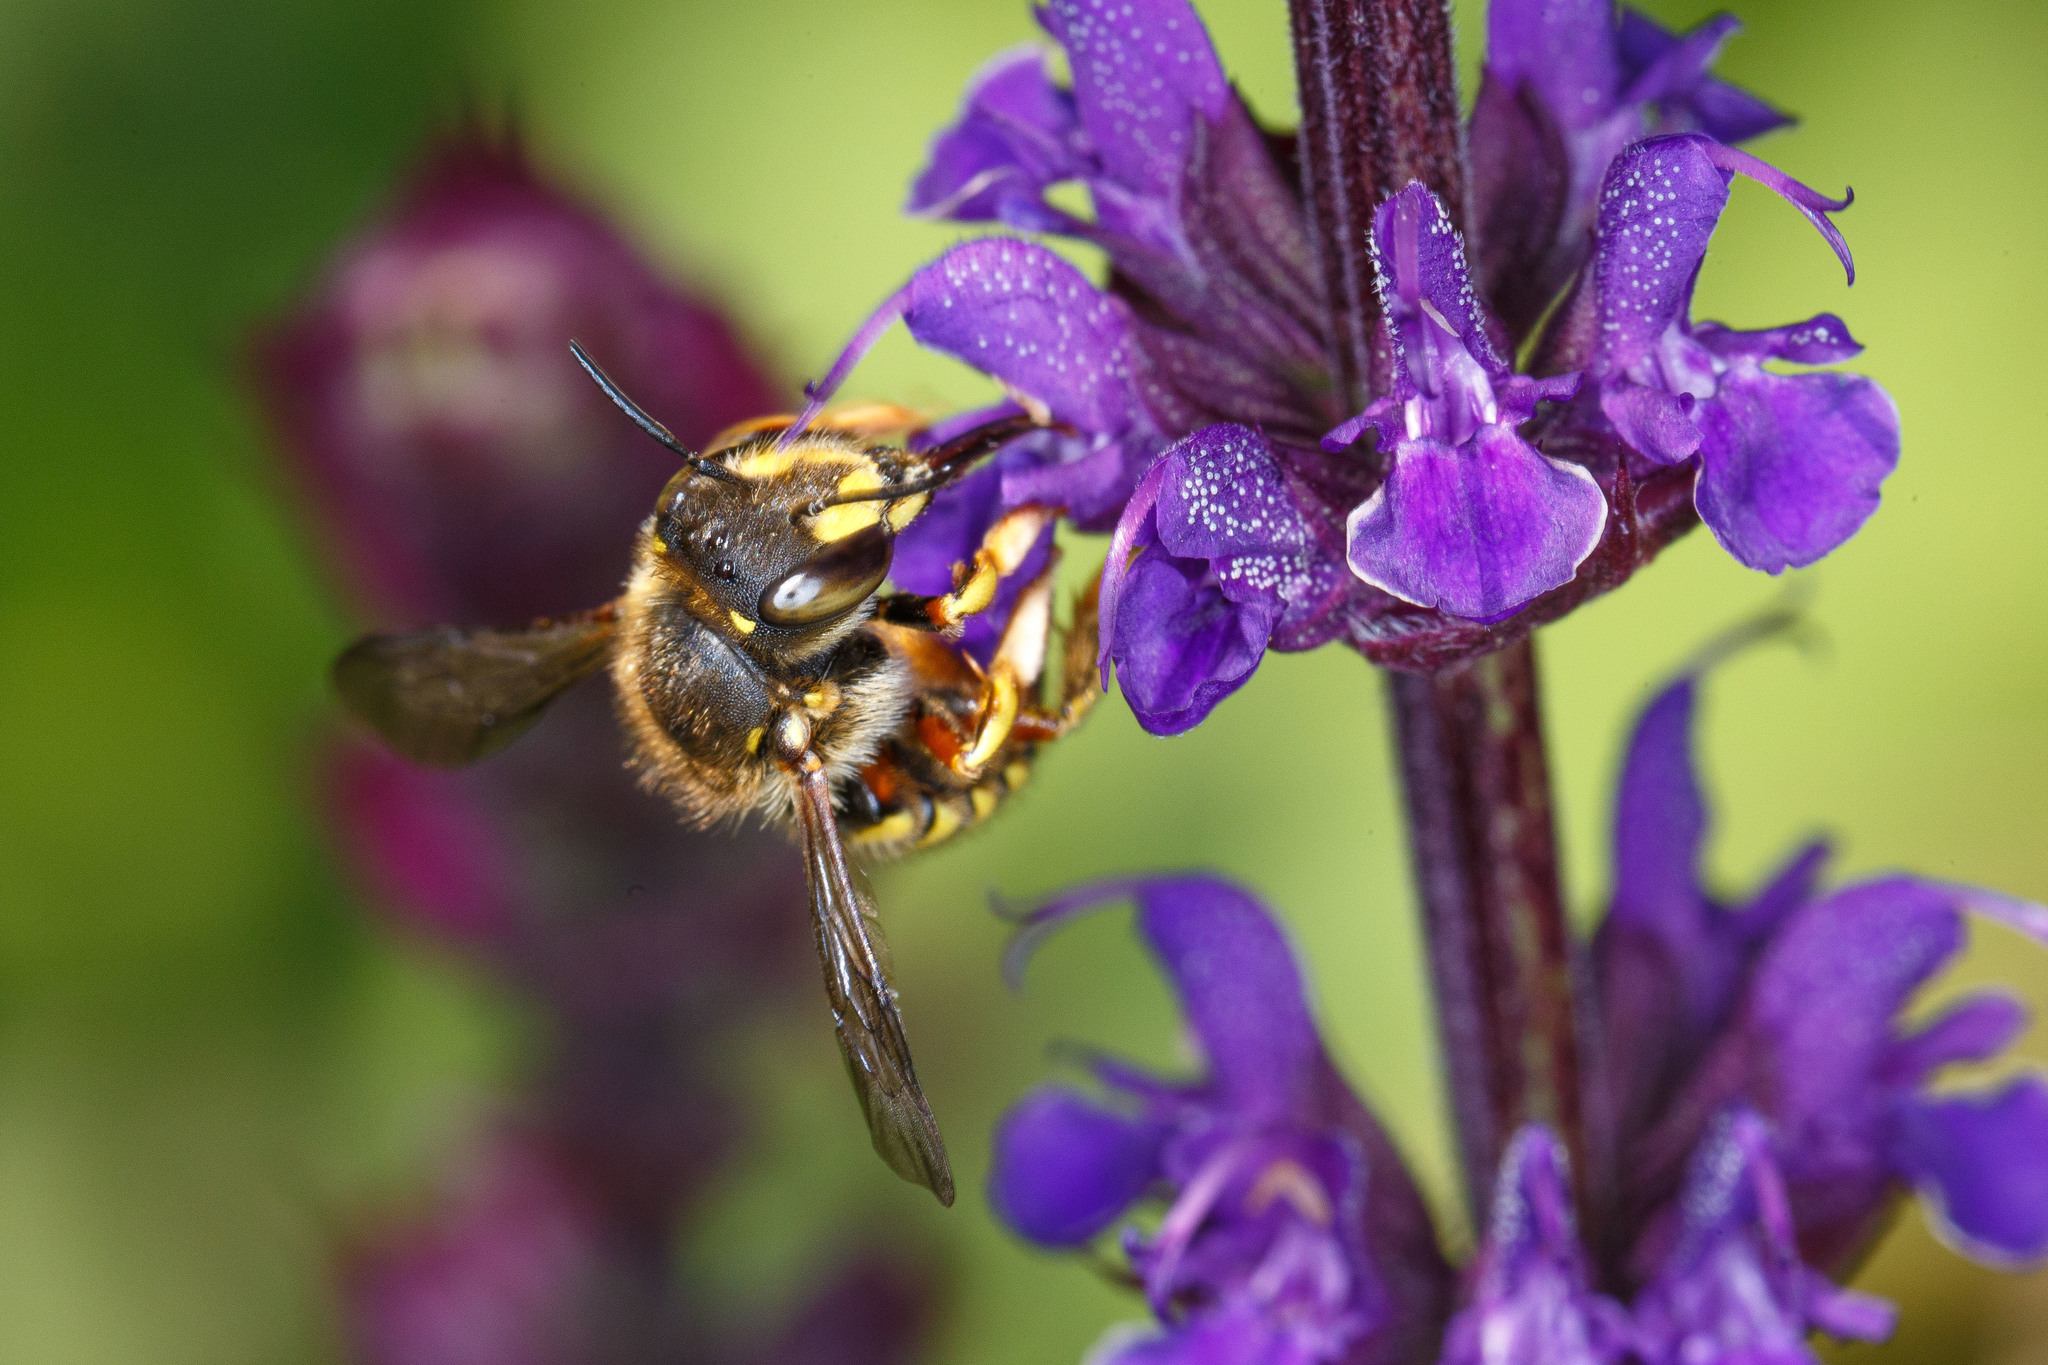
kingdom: Animalia
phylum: Arthropoda
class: Insecta
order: Hymenoptera
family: Megachilidae
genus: Anthidium
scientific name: Anthidium manicatum
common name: Wool carder bee
